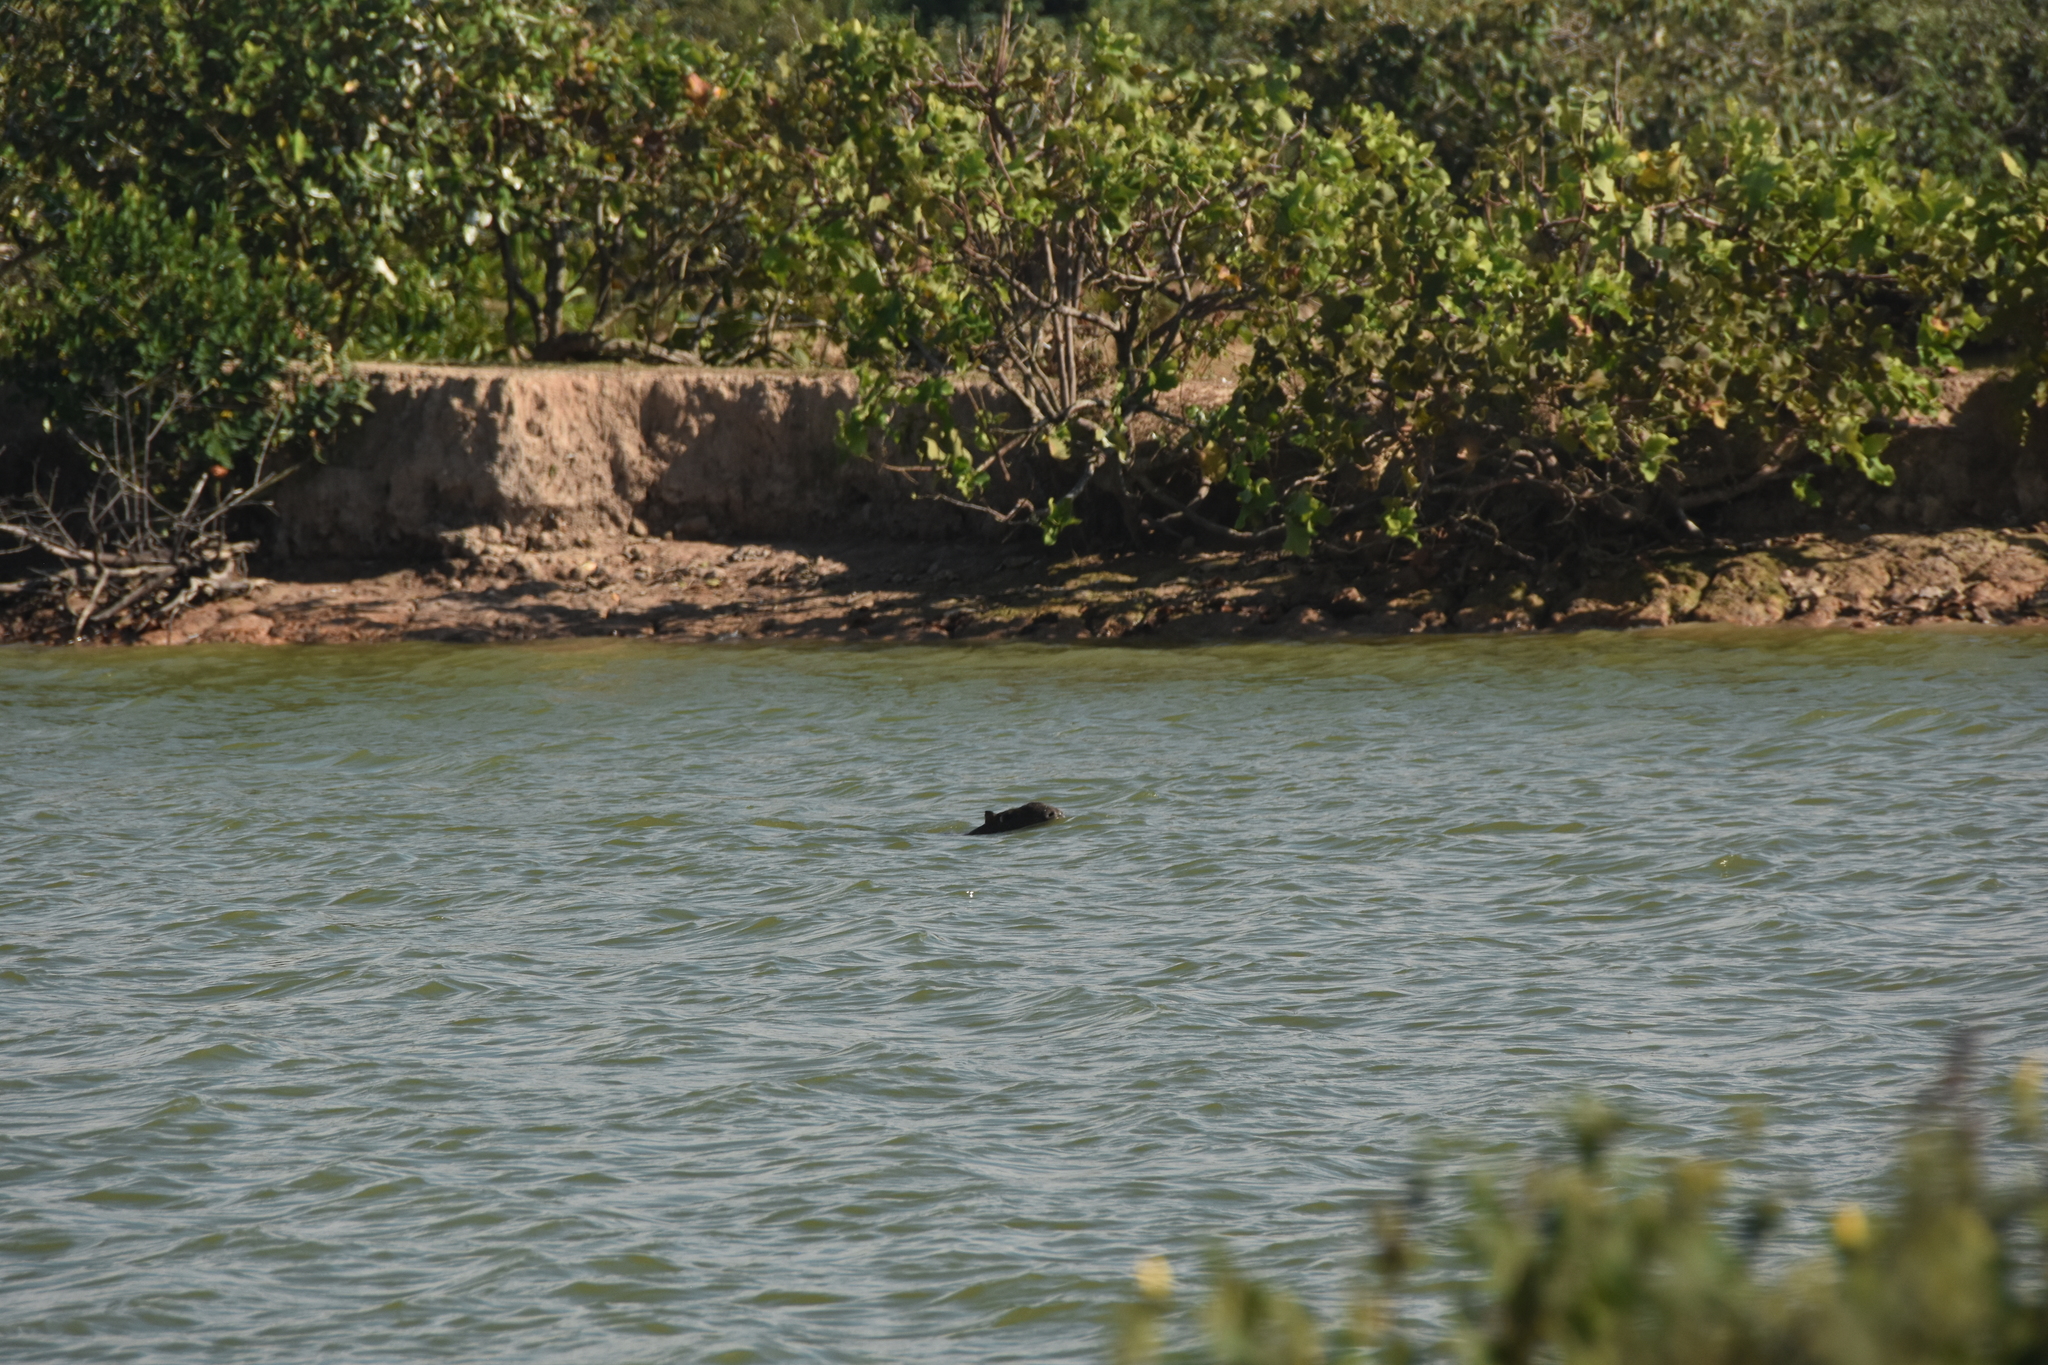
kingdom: Animalia
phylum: Chordata
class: Mammalia
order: Rodentia
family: Caviidae
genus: Hydrochoerus
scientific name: Hydrochoerus hydrochaeris
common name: Capybara
